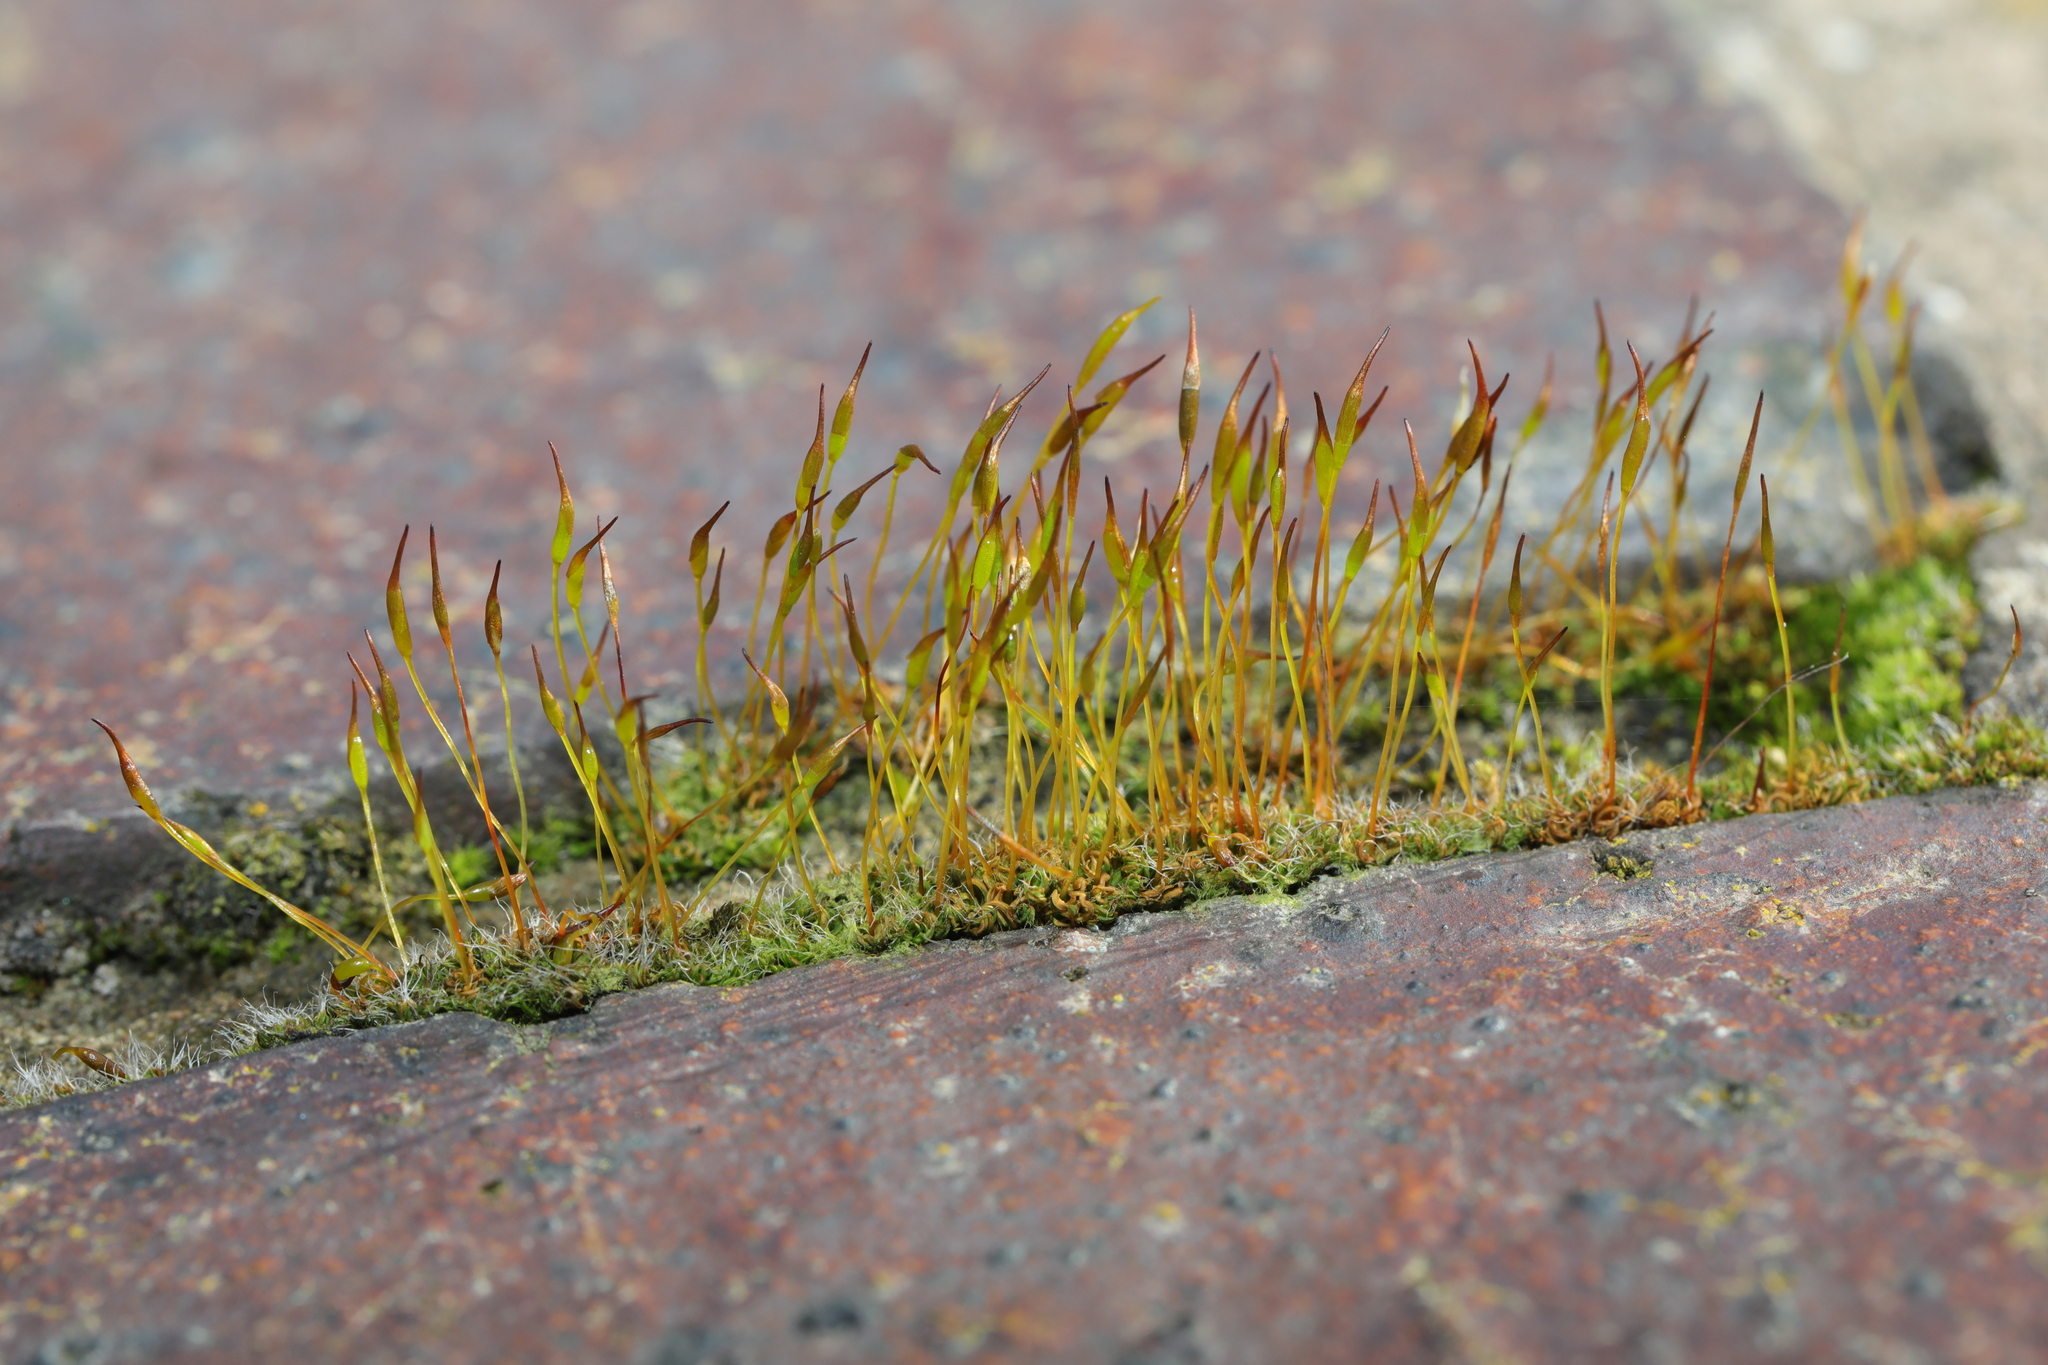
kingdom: Plantae
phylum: Bryophyta
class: Bryopsida
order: Pottiales
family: Pottiaceae
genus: Tortula
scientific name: Tortula muralis
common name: Wall screw-moss
